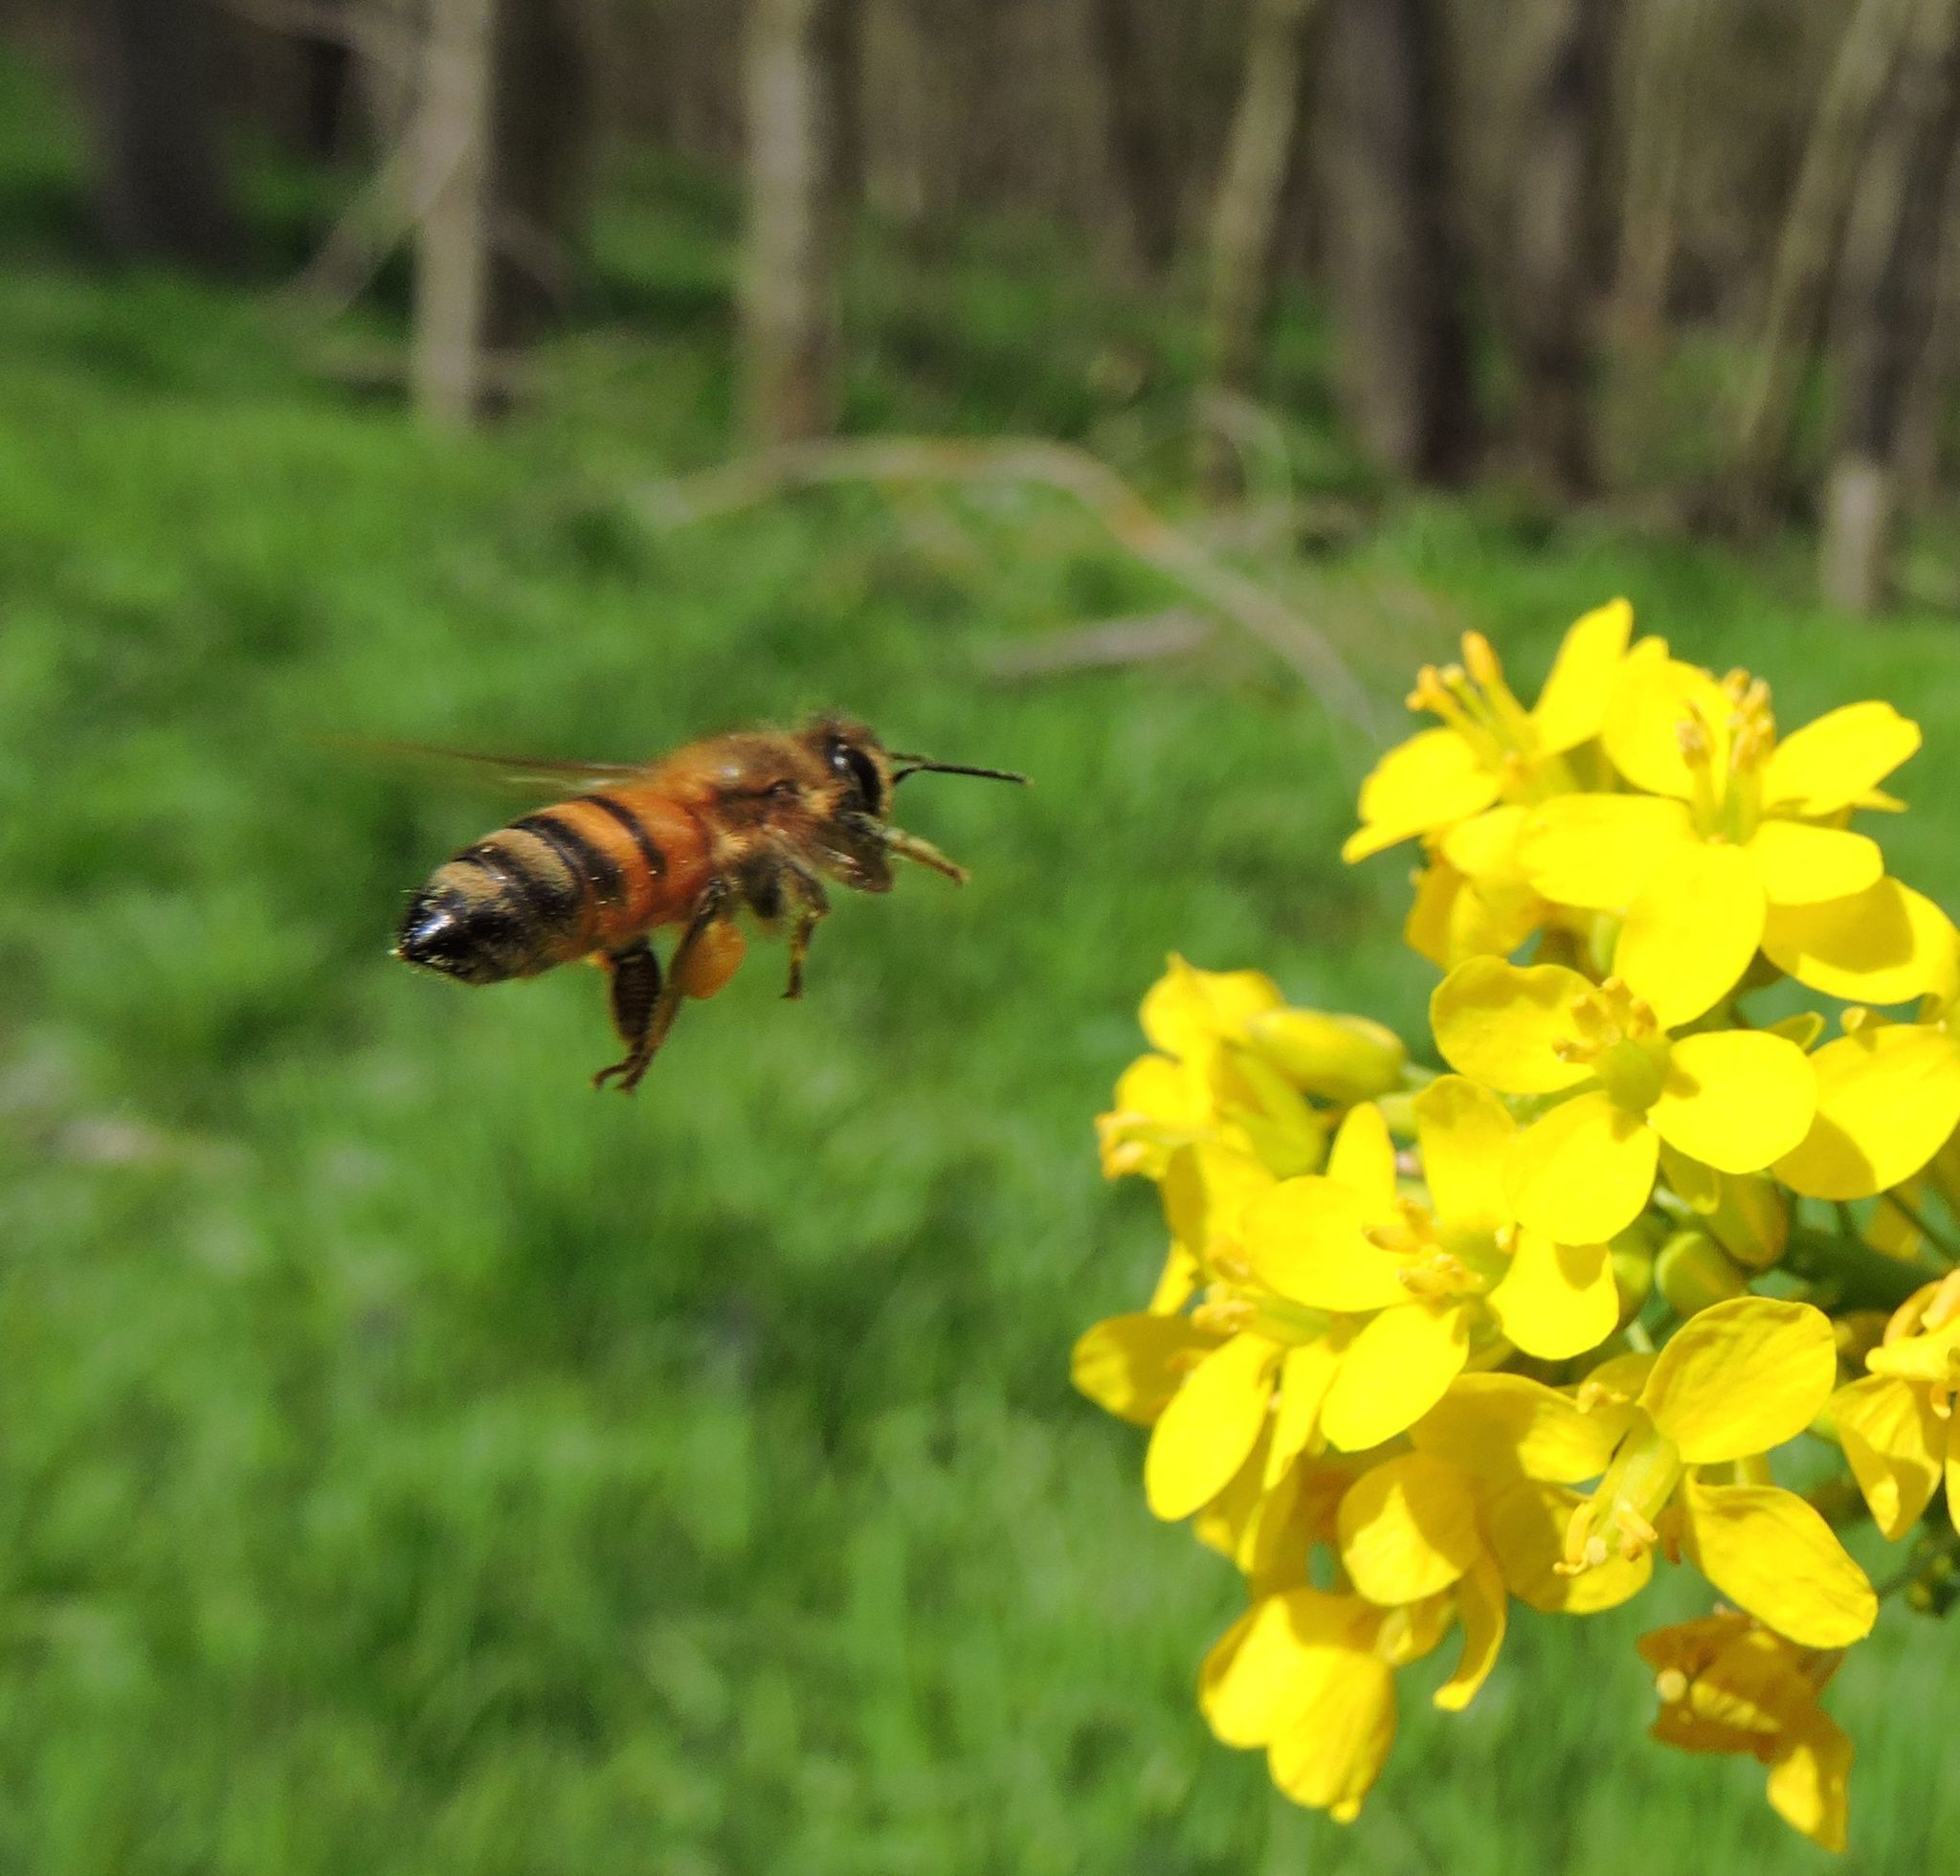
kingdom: Animalia
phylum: Arthropoda
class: Insecta
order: Hymenoptera
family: Apidae
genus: Apis
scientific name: Apis mellifera
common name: Honey bee
